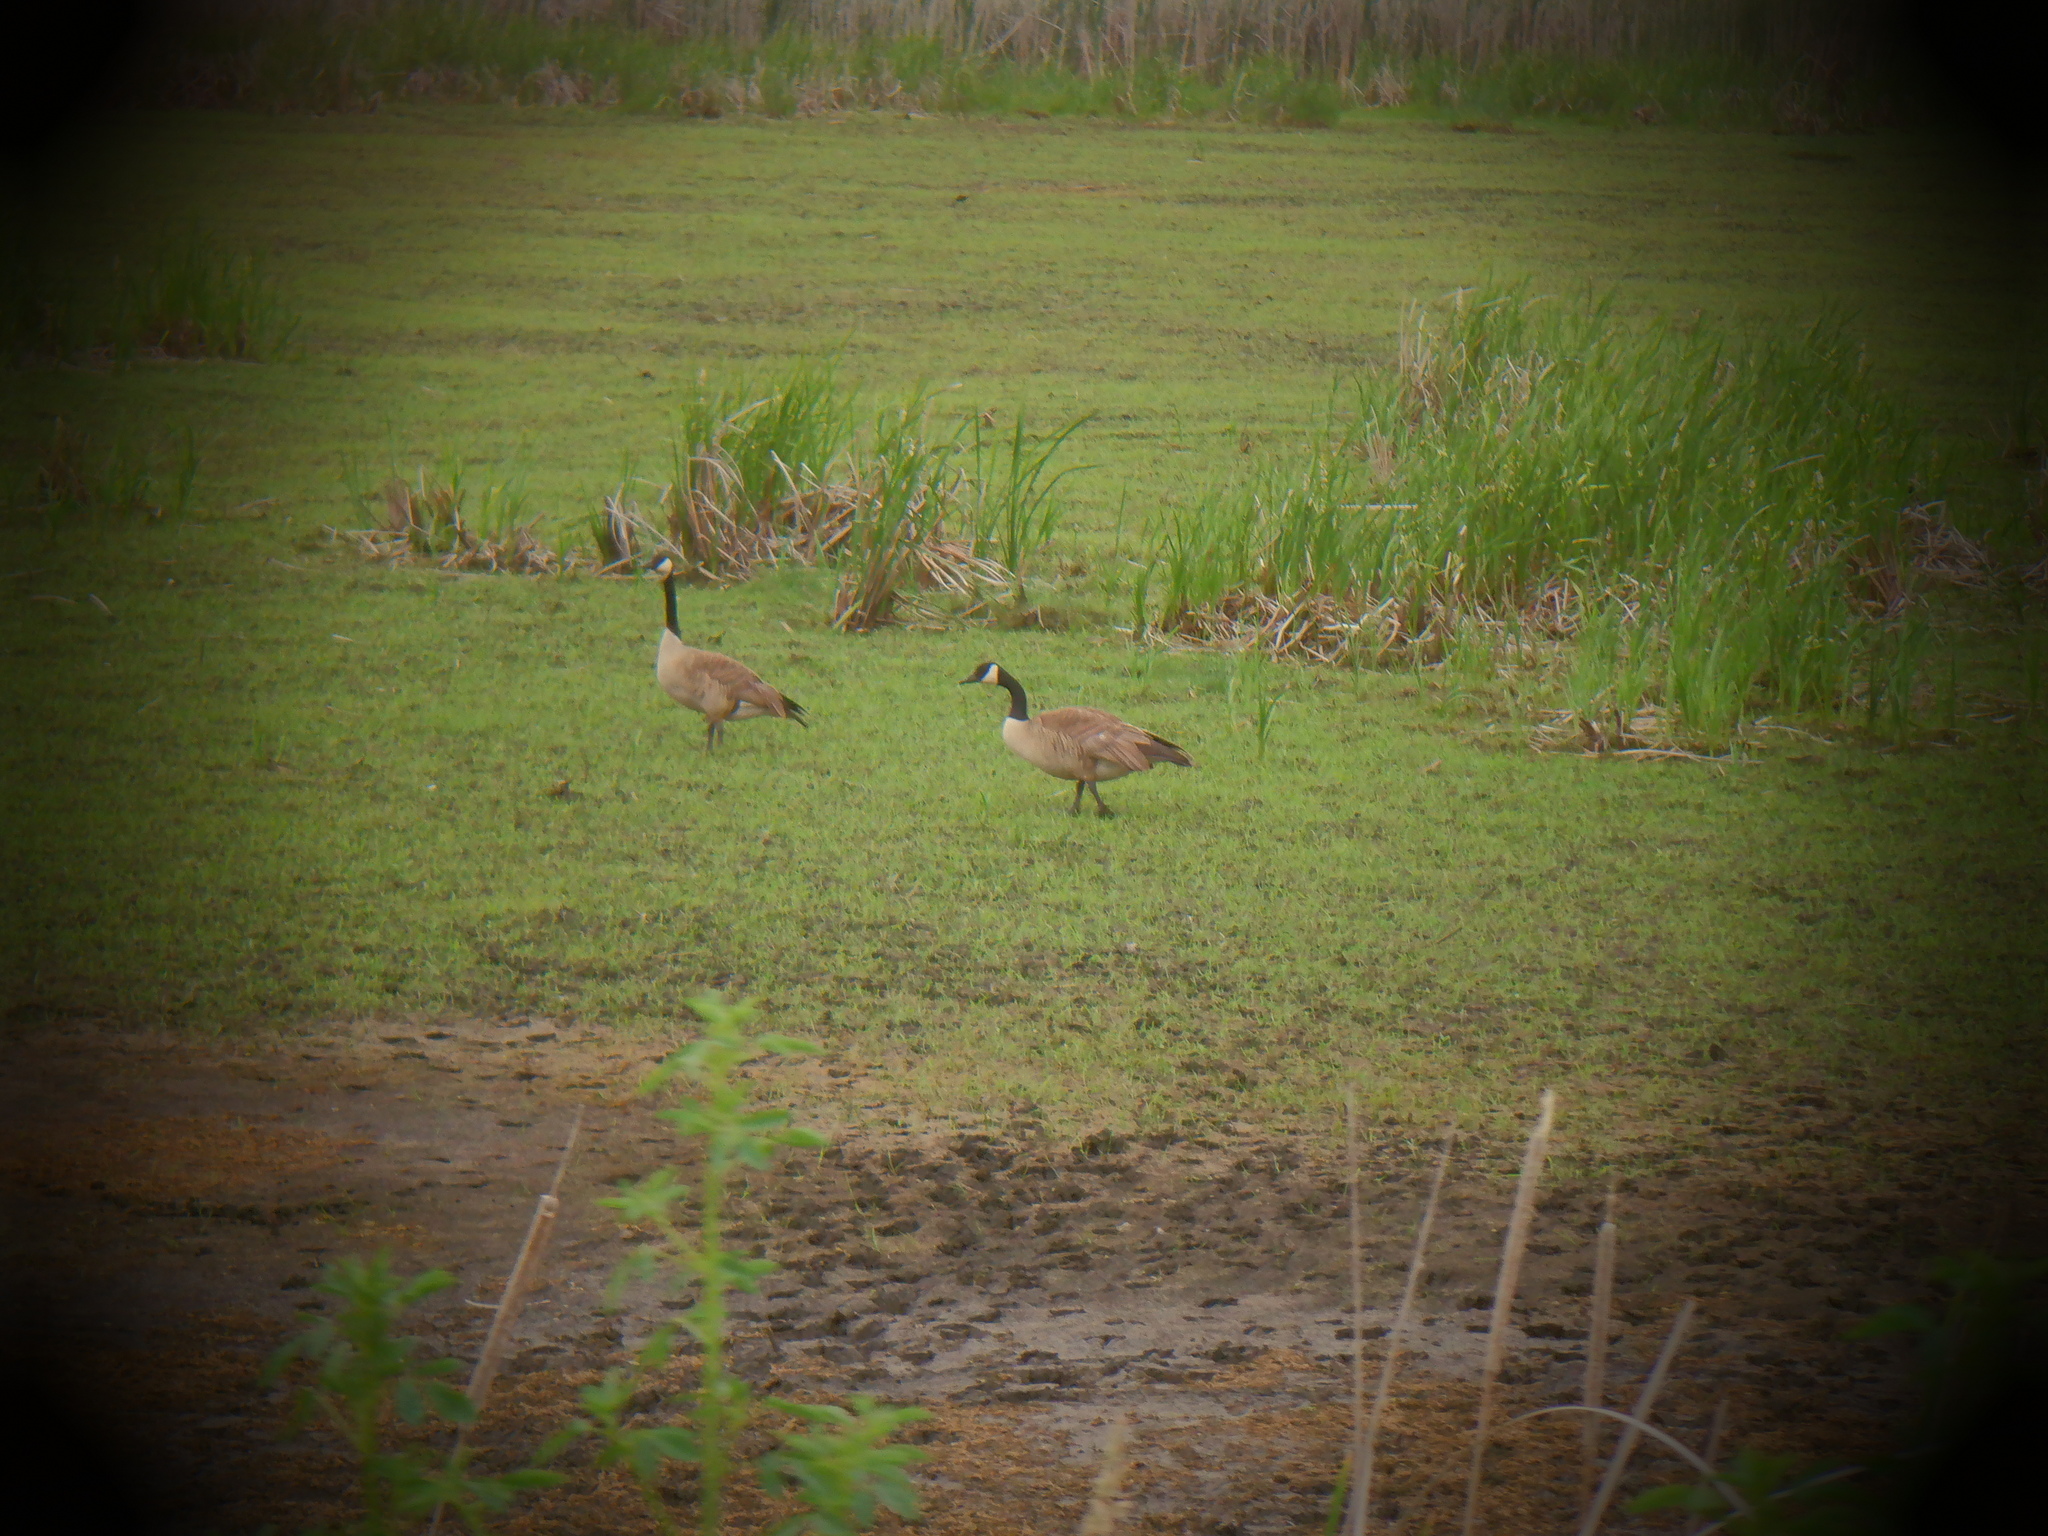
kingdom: Animalia
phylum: Chordata
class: Aves
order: Anseriformes
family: Anatidae
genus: Branta
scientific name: Branta canadensis
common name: Canada goose
